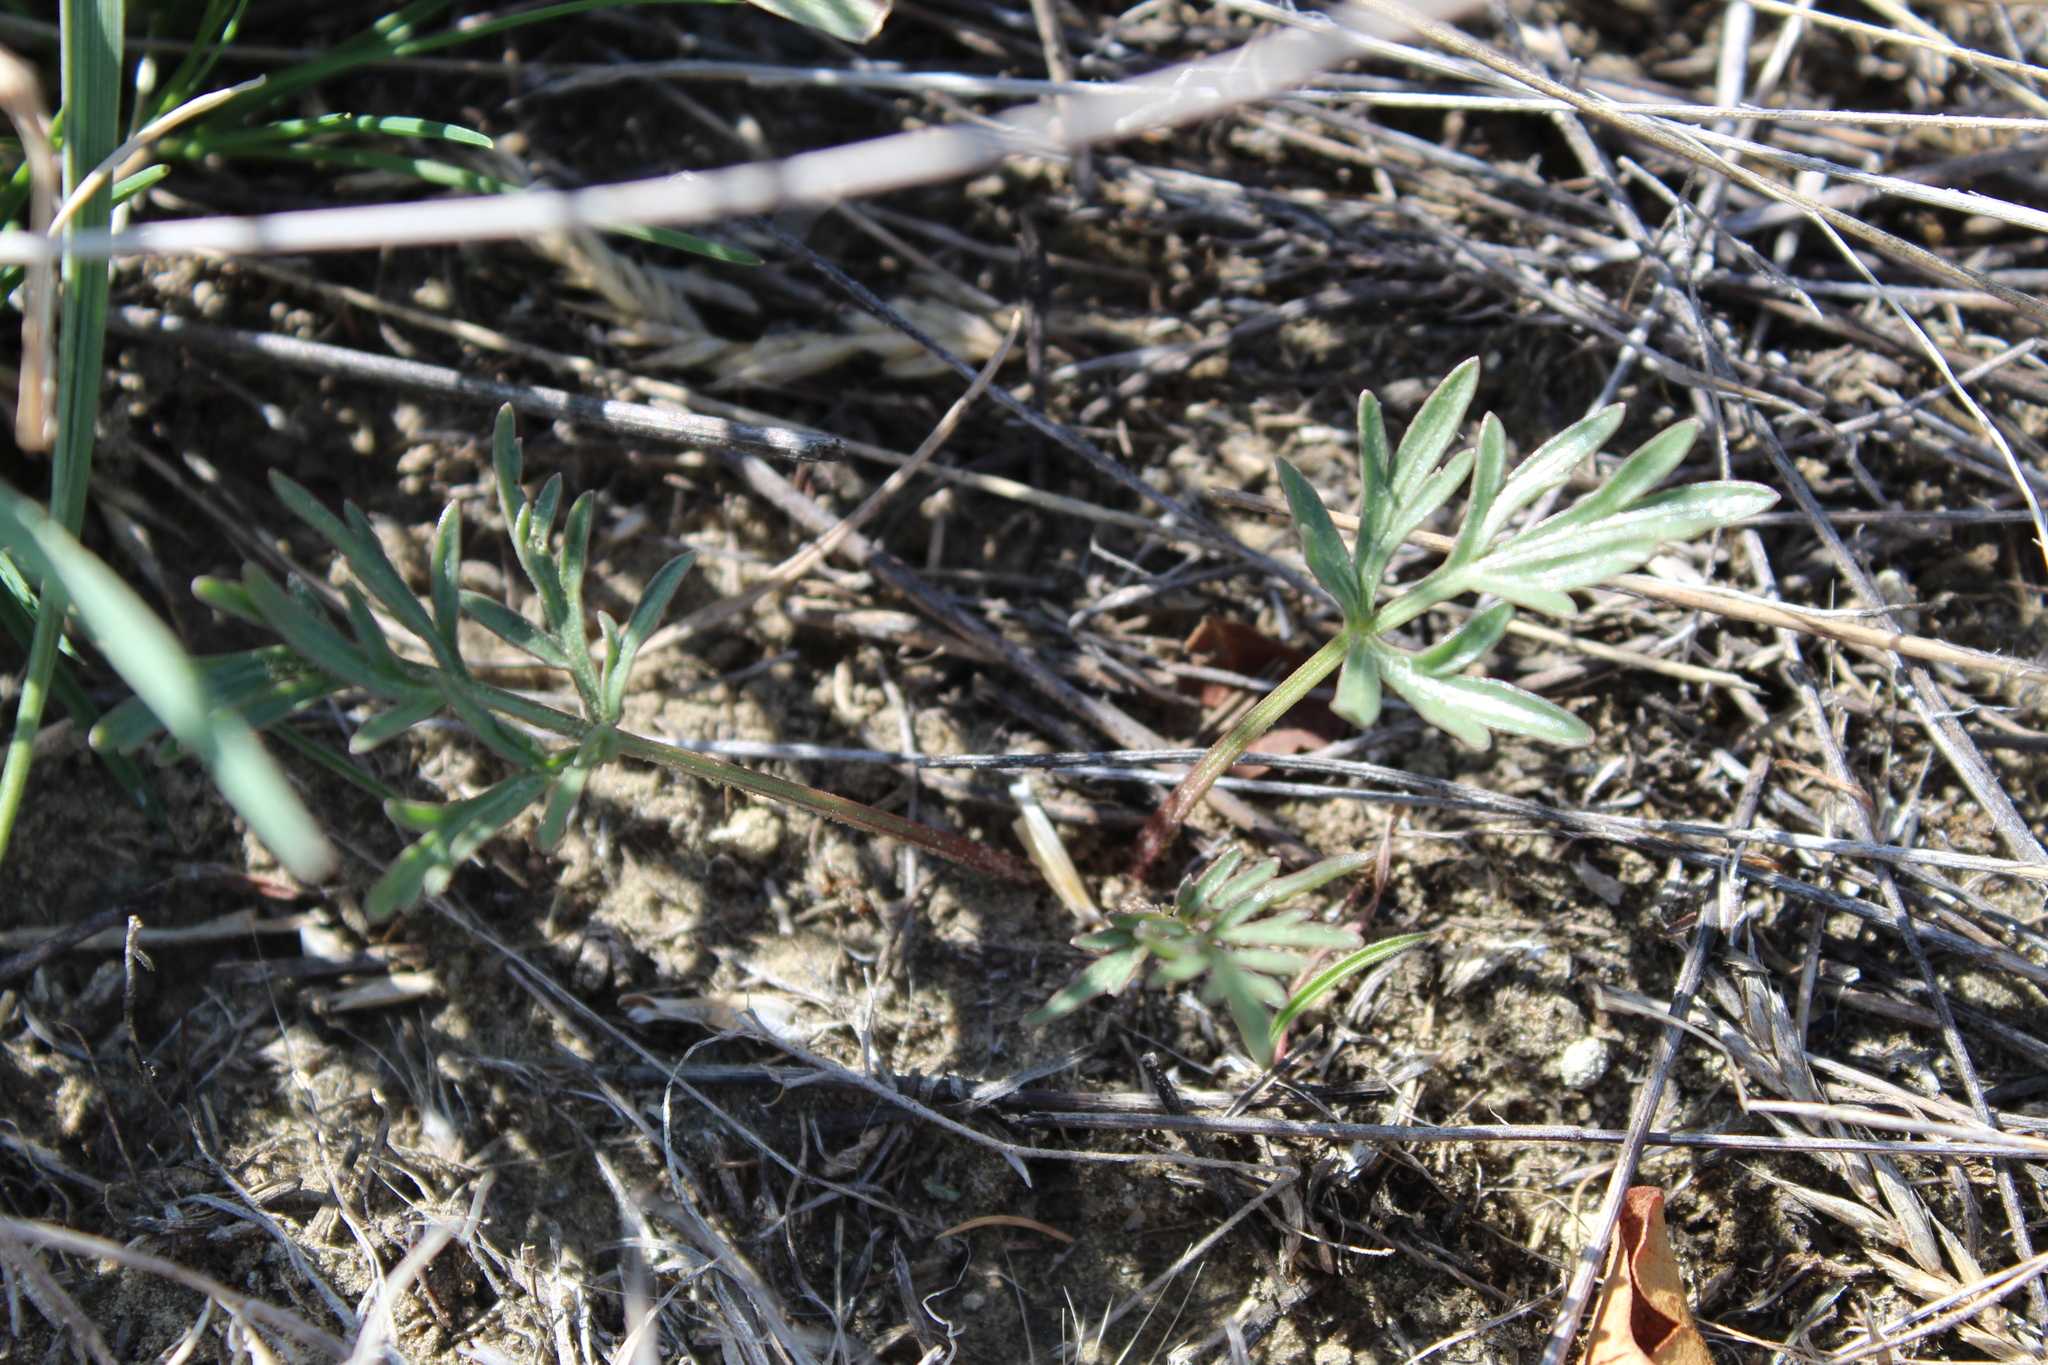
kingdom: Plantae
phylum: Tracheophyta
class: Magnoliopsida
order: Apiales
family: Apiaceae
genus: Lomatium
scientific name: Lomatium orientale
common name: Eastern cous
